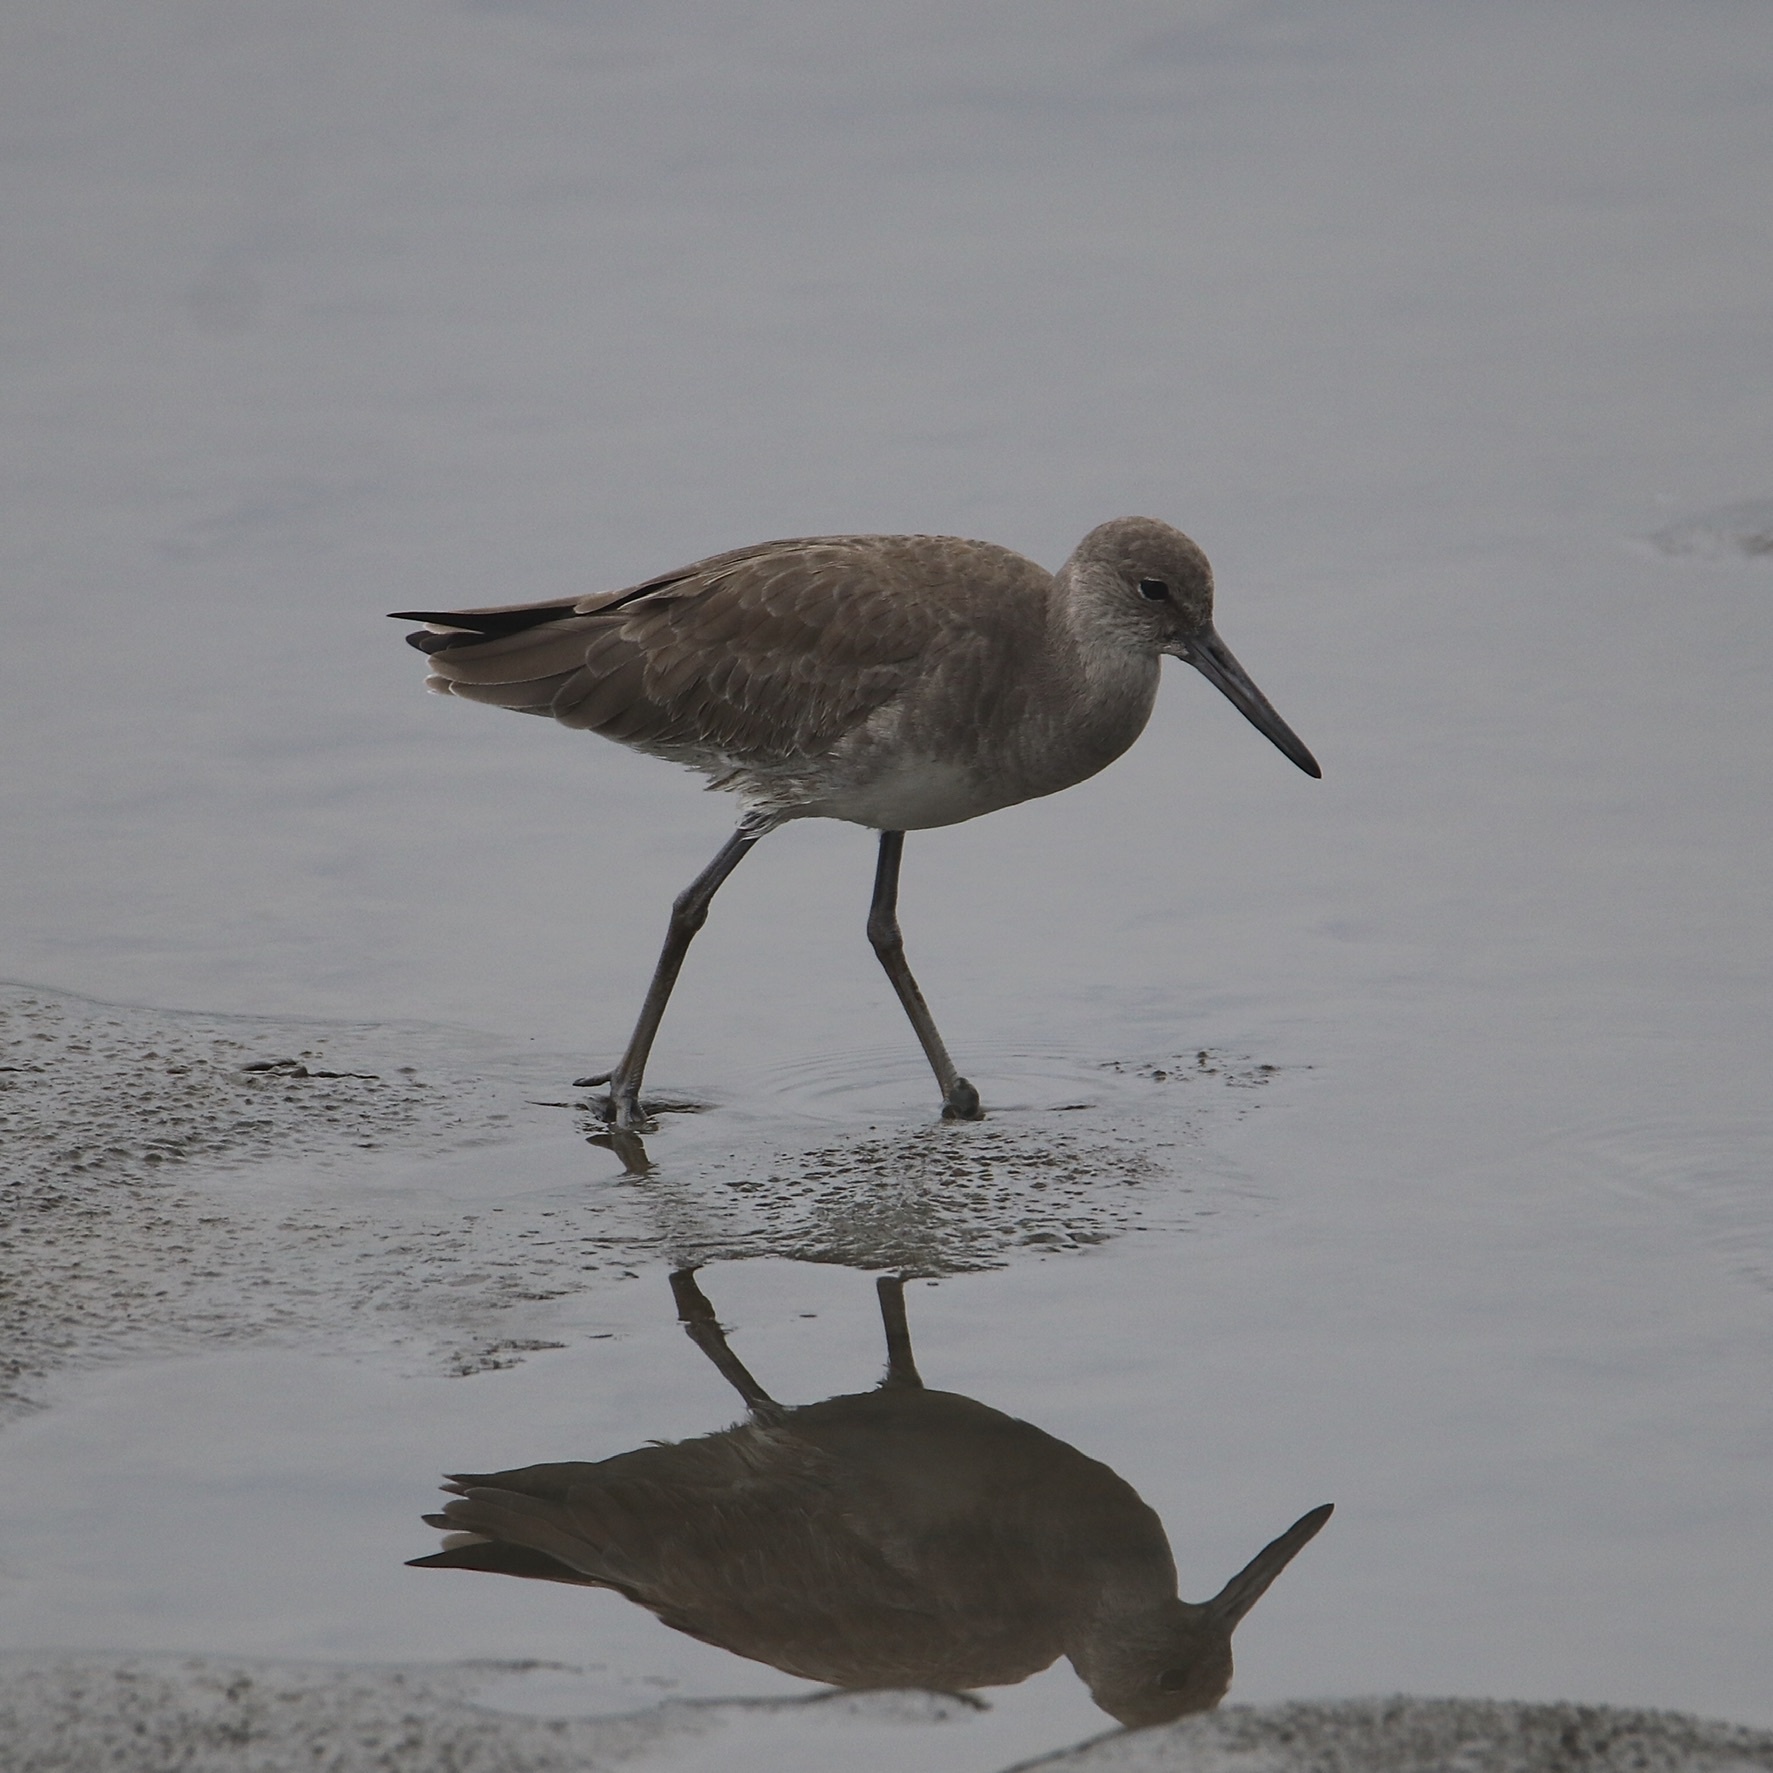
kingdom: Animalia
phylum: Chordata
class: Aves
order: Charadriiformes
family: Scolopacidae
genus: Tringa
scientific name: Tringa semipalmata
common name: Willet
